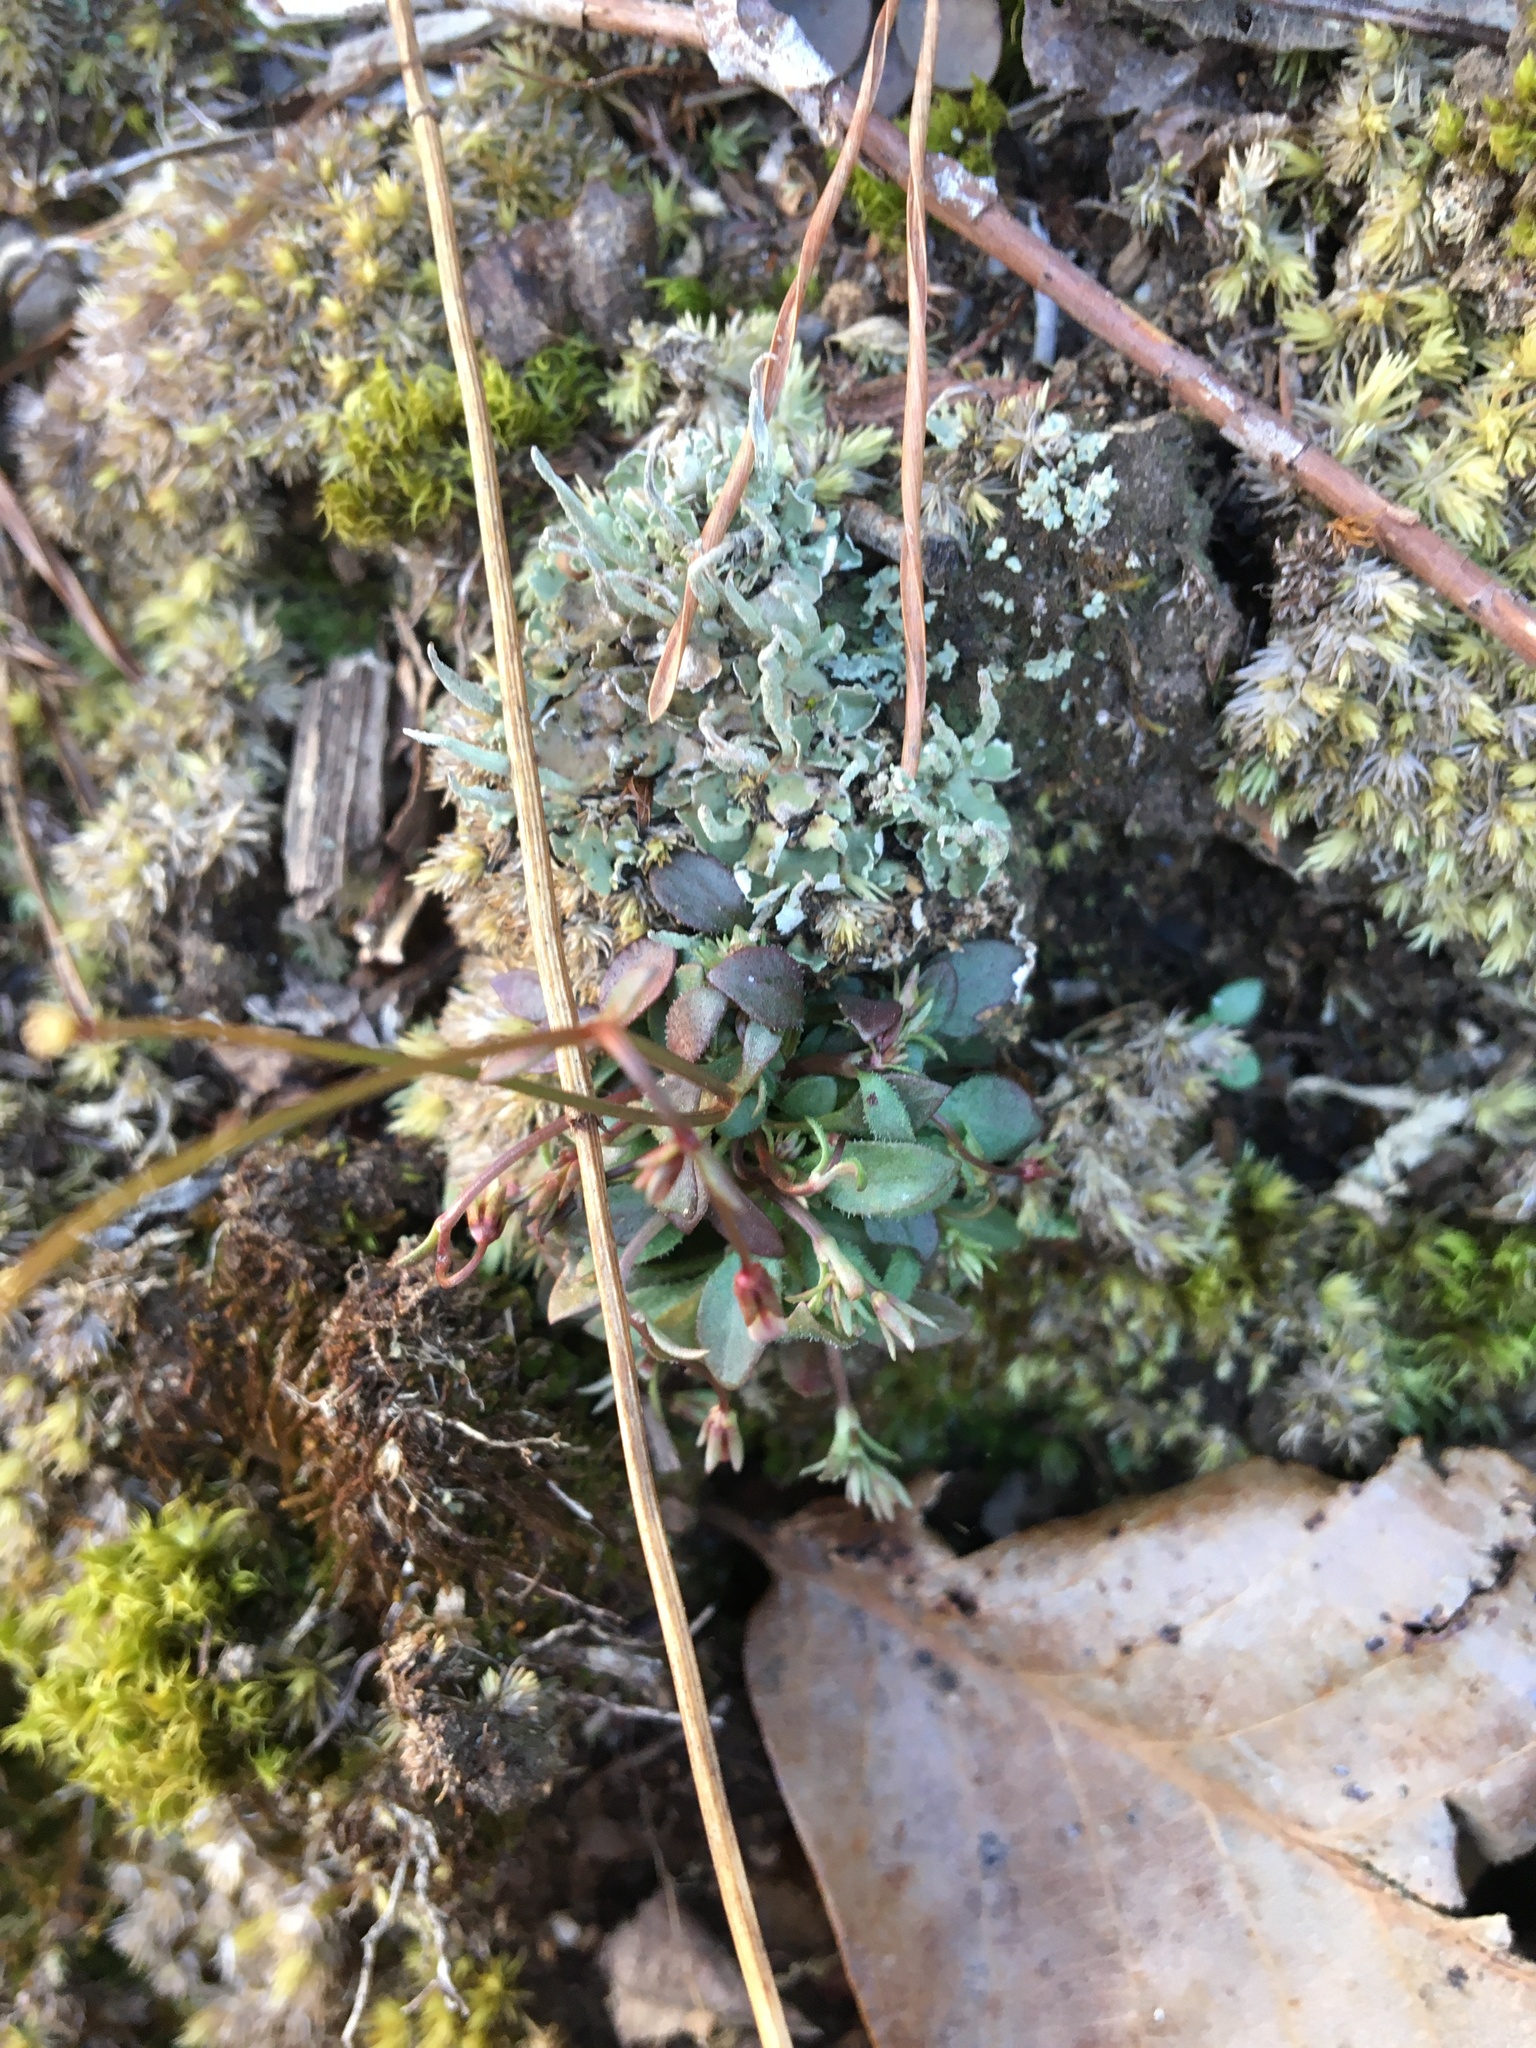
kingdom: Plantae
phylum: Tracheophyta
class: Magnoliopsida
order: Gentianales
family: Rubiaceae
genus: Houstonia
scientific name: Houstonia caerulea
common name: Bluets
